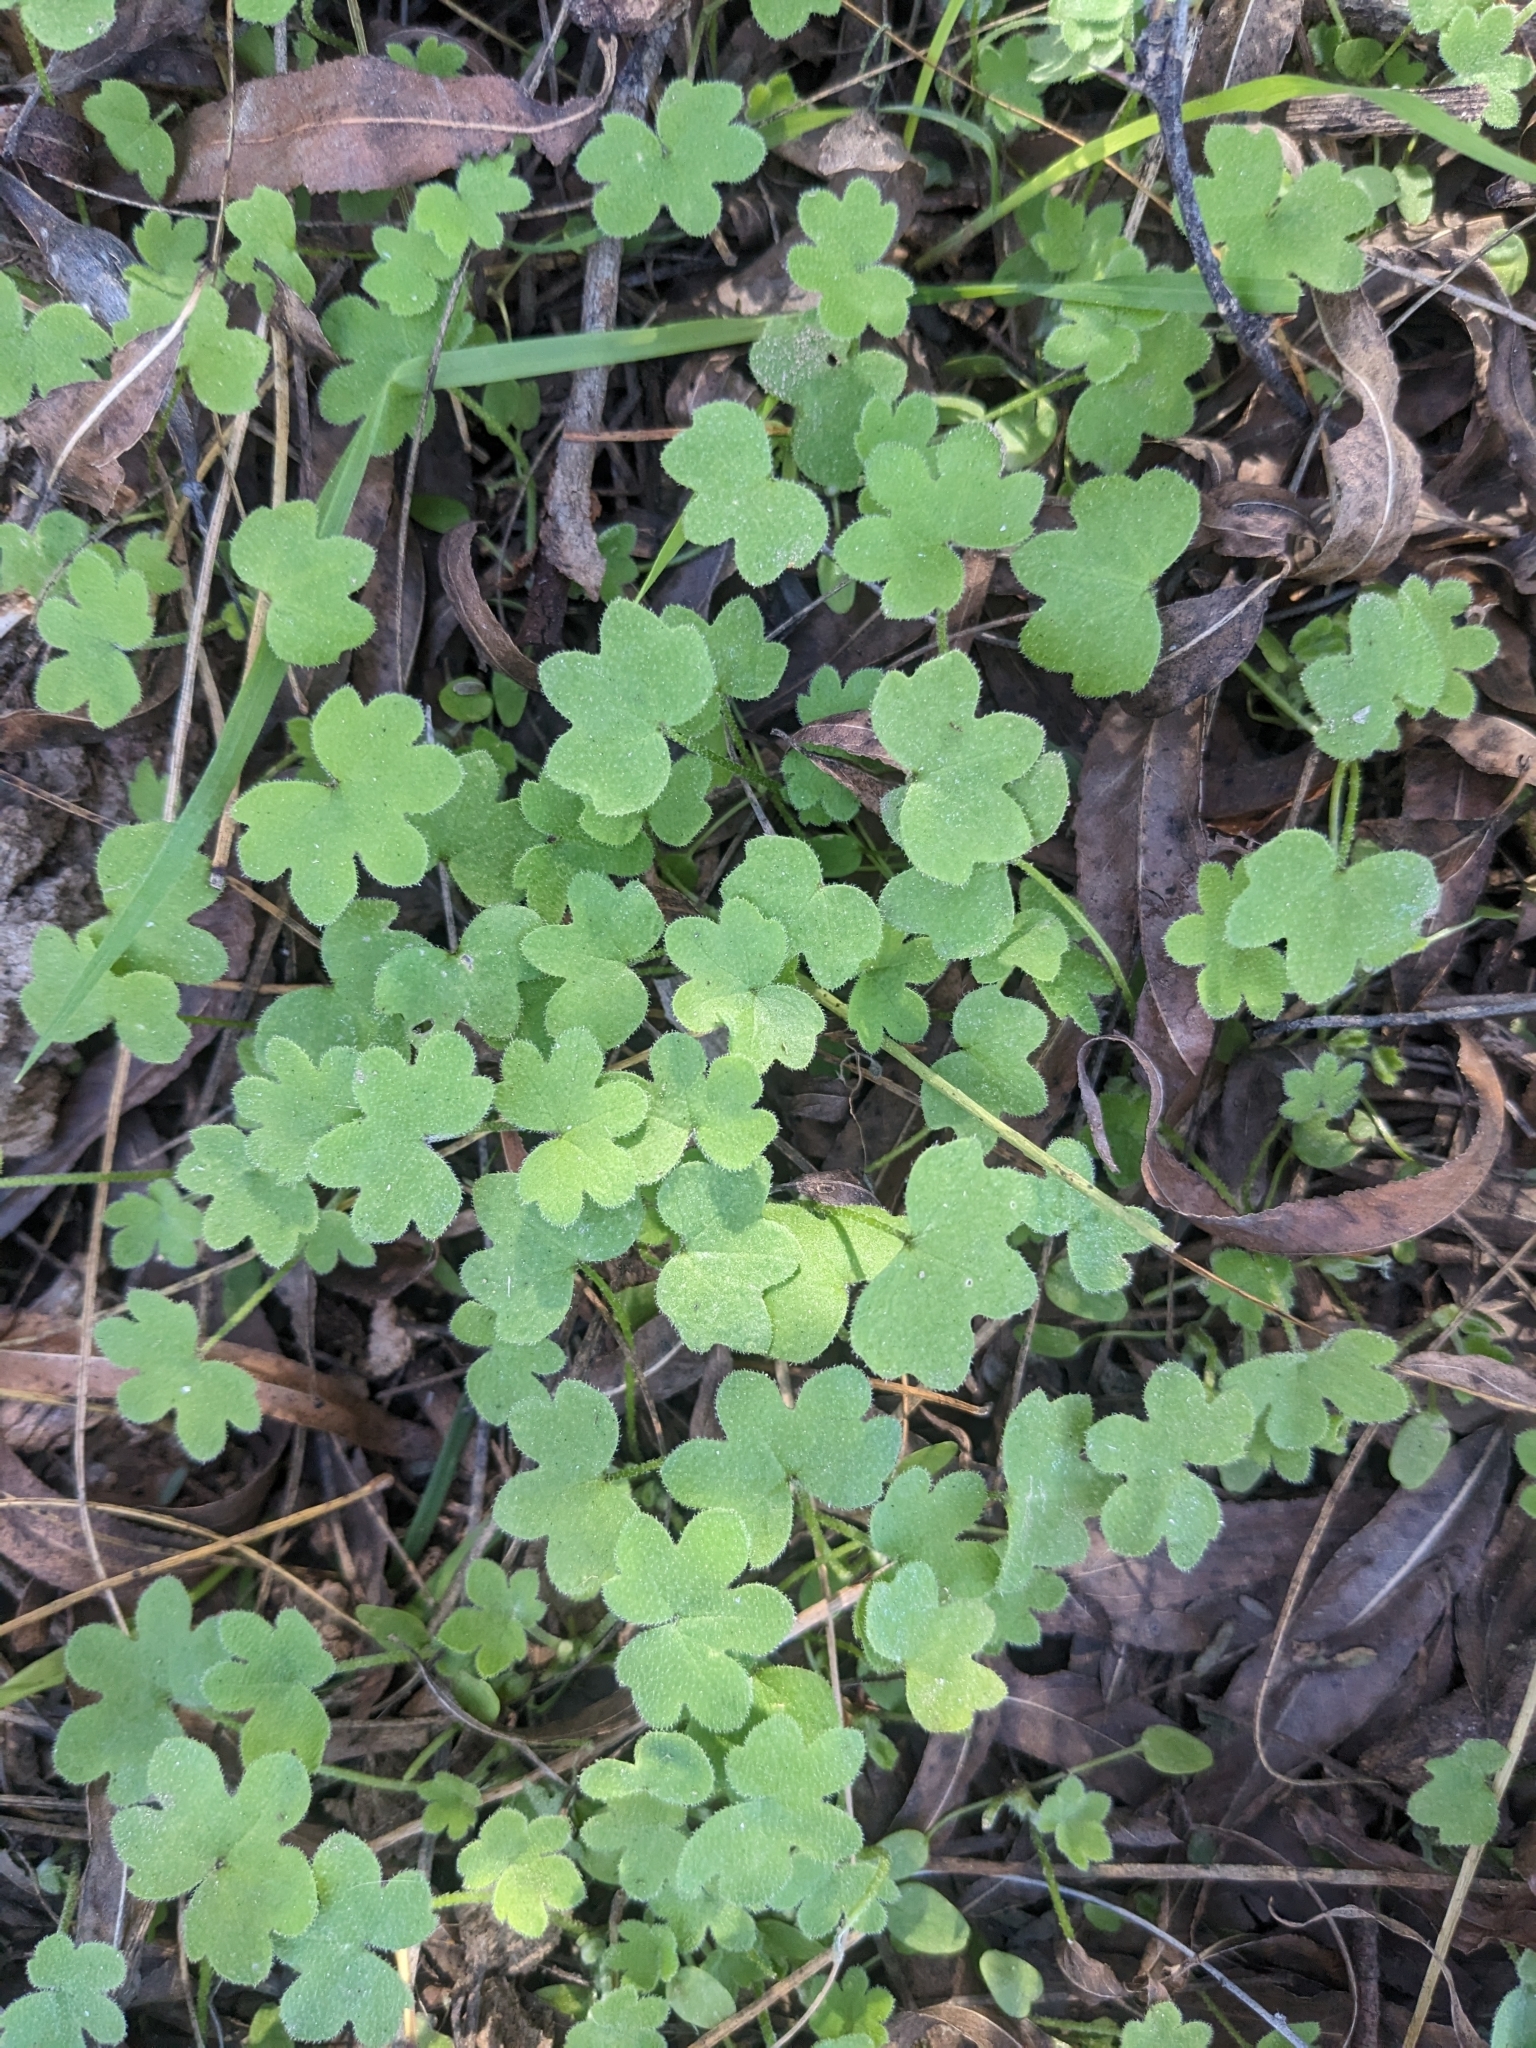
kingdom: Plantae
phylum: Tracheophyta
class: Magnoliopsida
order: Apiales
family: Apiaceae
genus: Bowlesia
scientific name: Bowlesia incana
